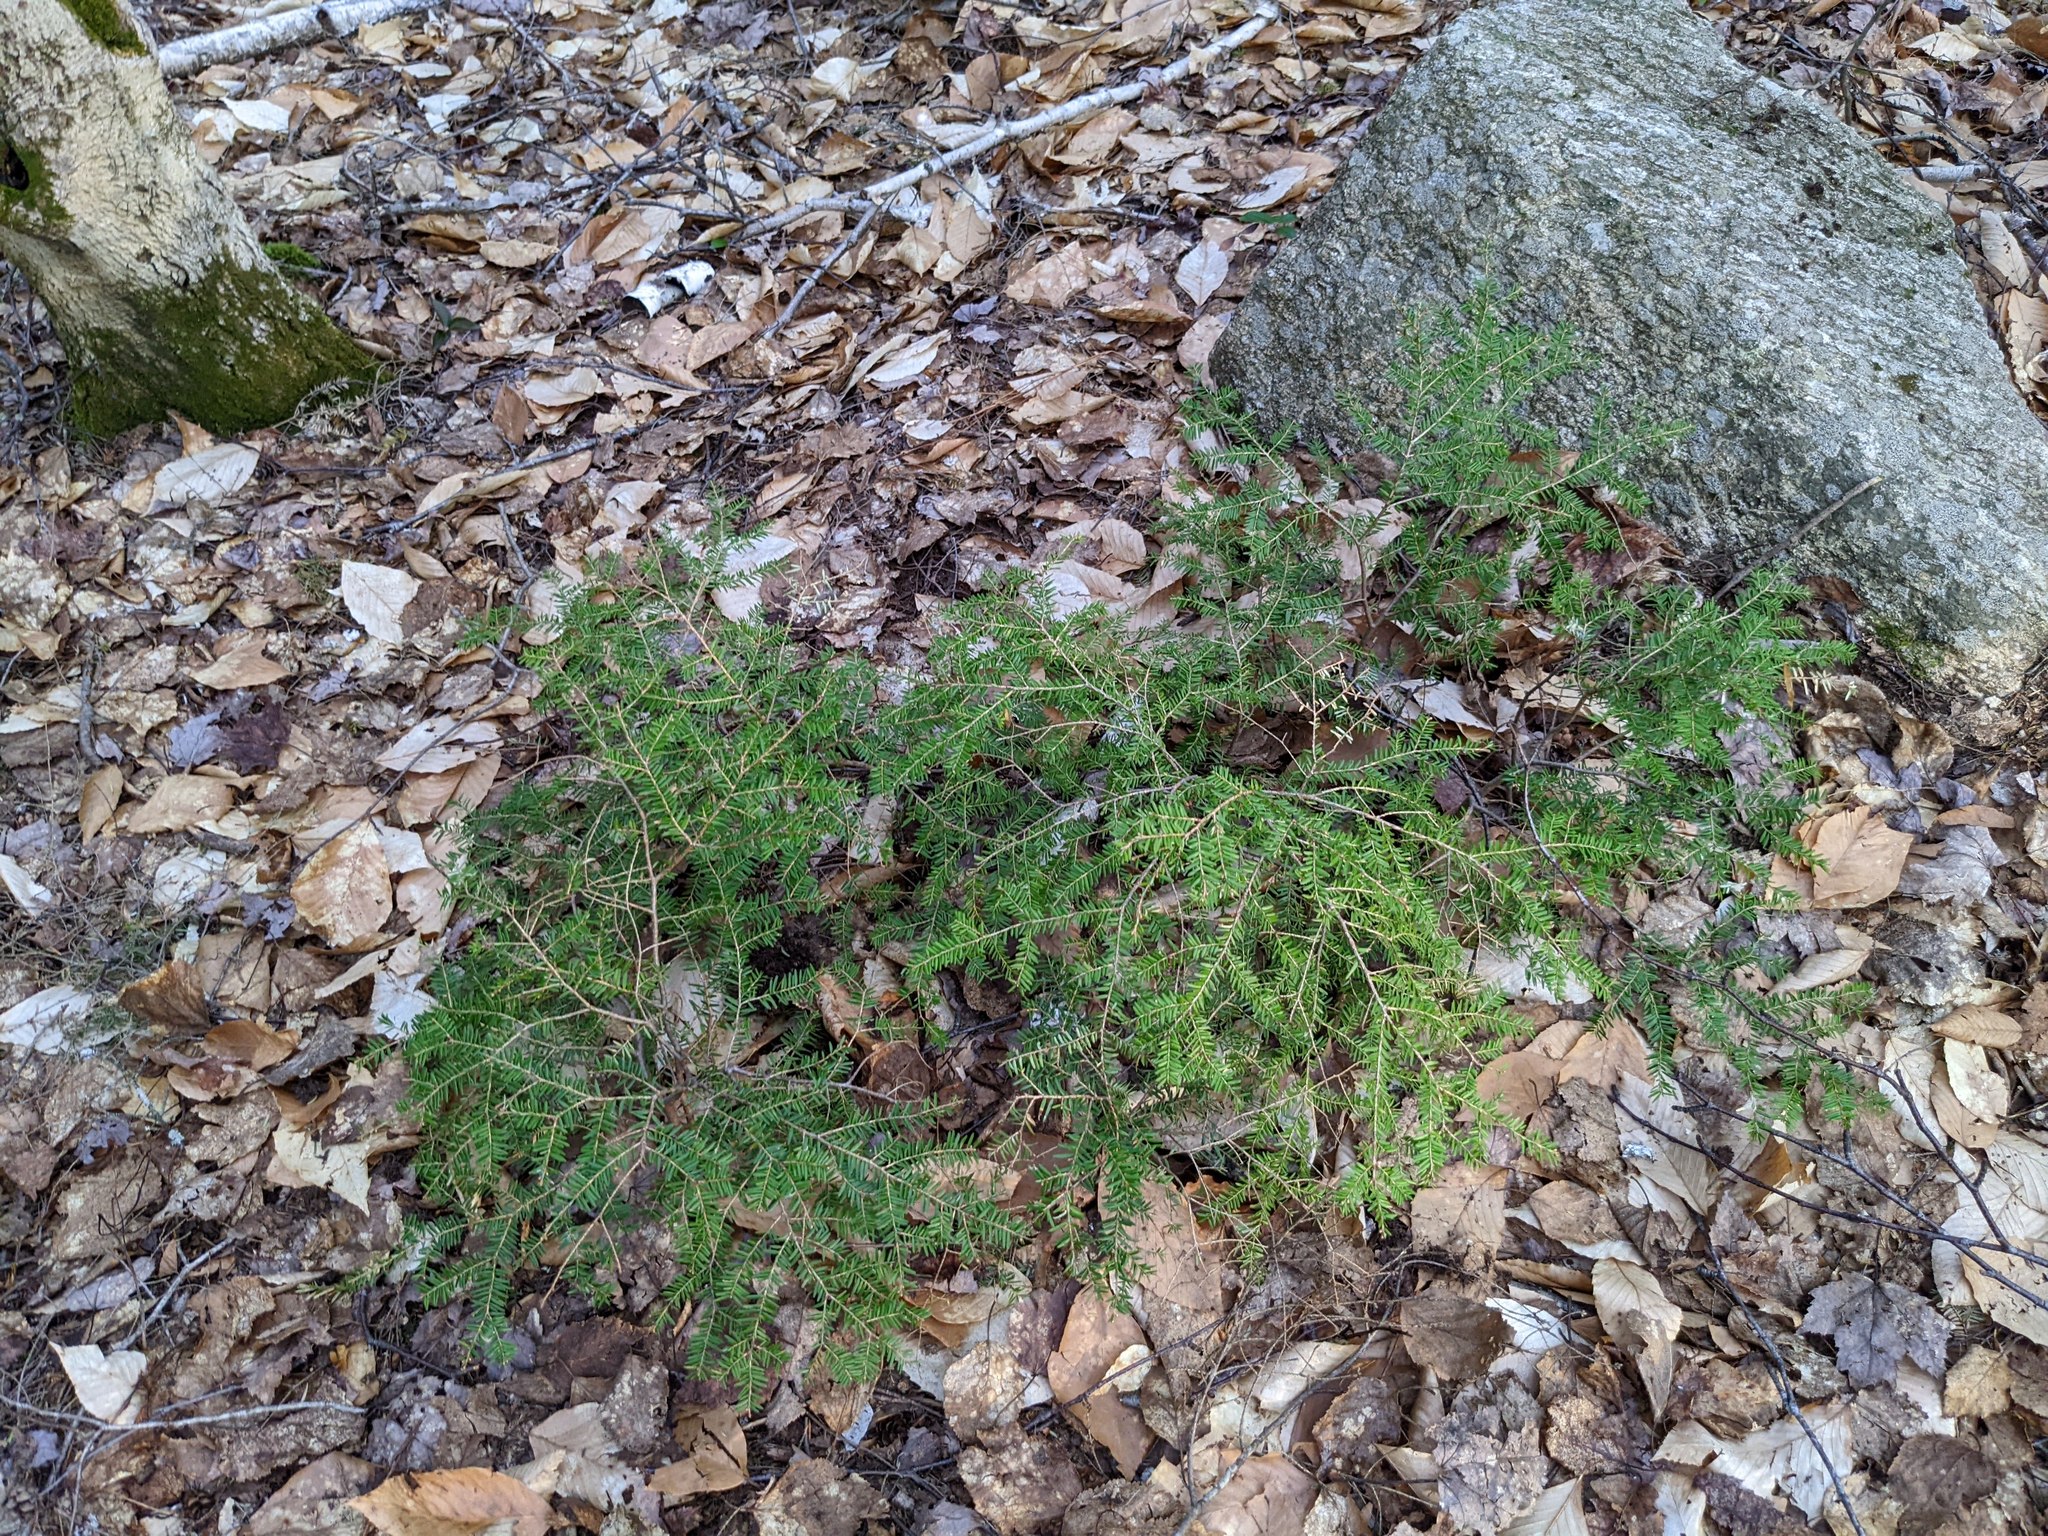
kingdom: Plantae
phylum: Tracheophyta
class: Pinopsida
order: Pinales
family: Pinaceae
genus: Tsuga
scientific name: Tsuga canadensis
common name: Eastern hemlock
